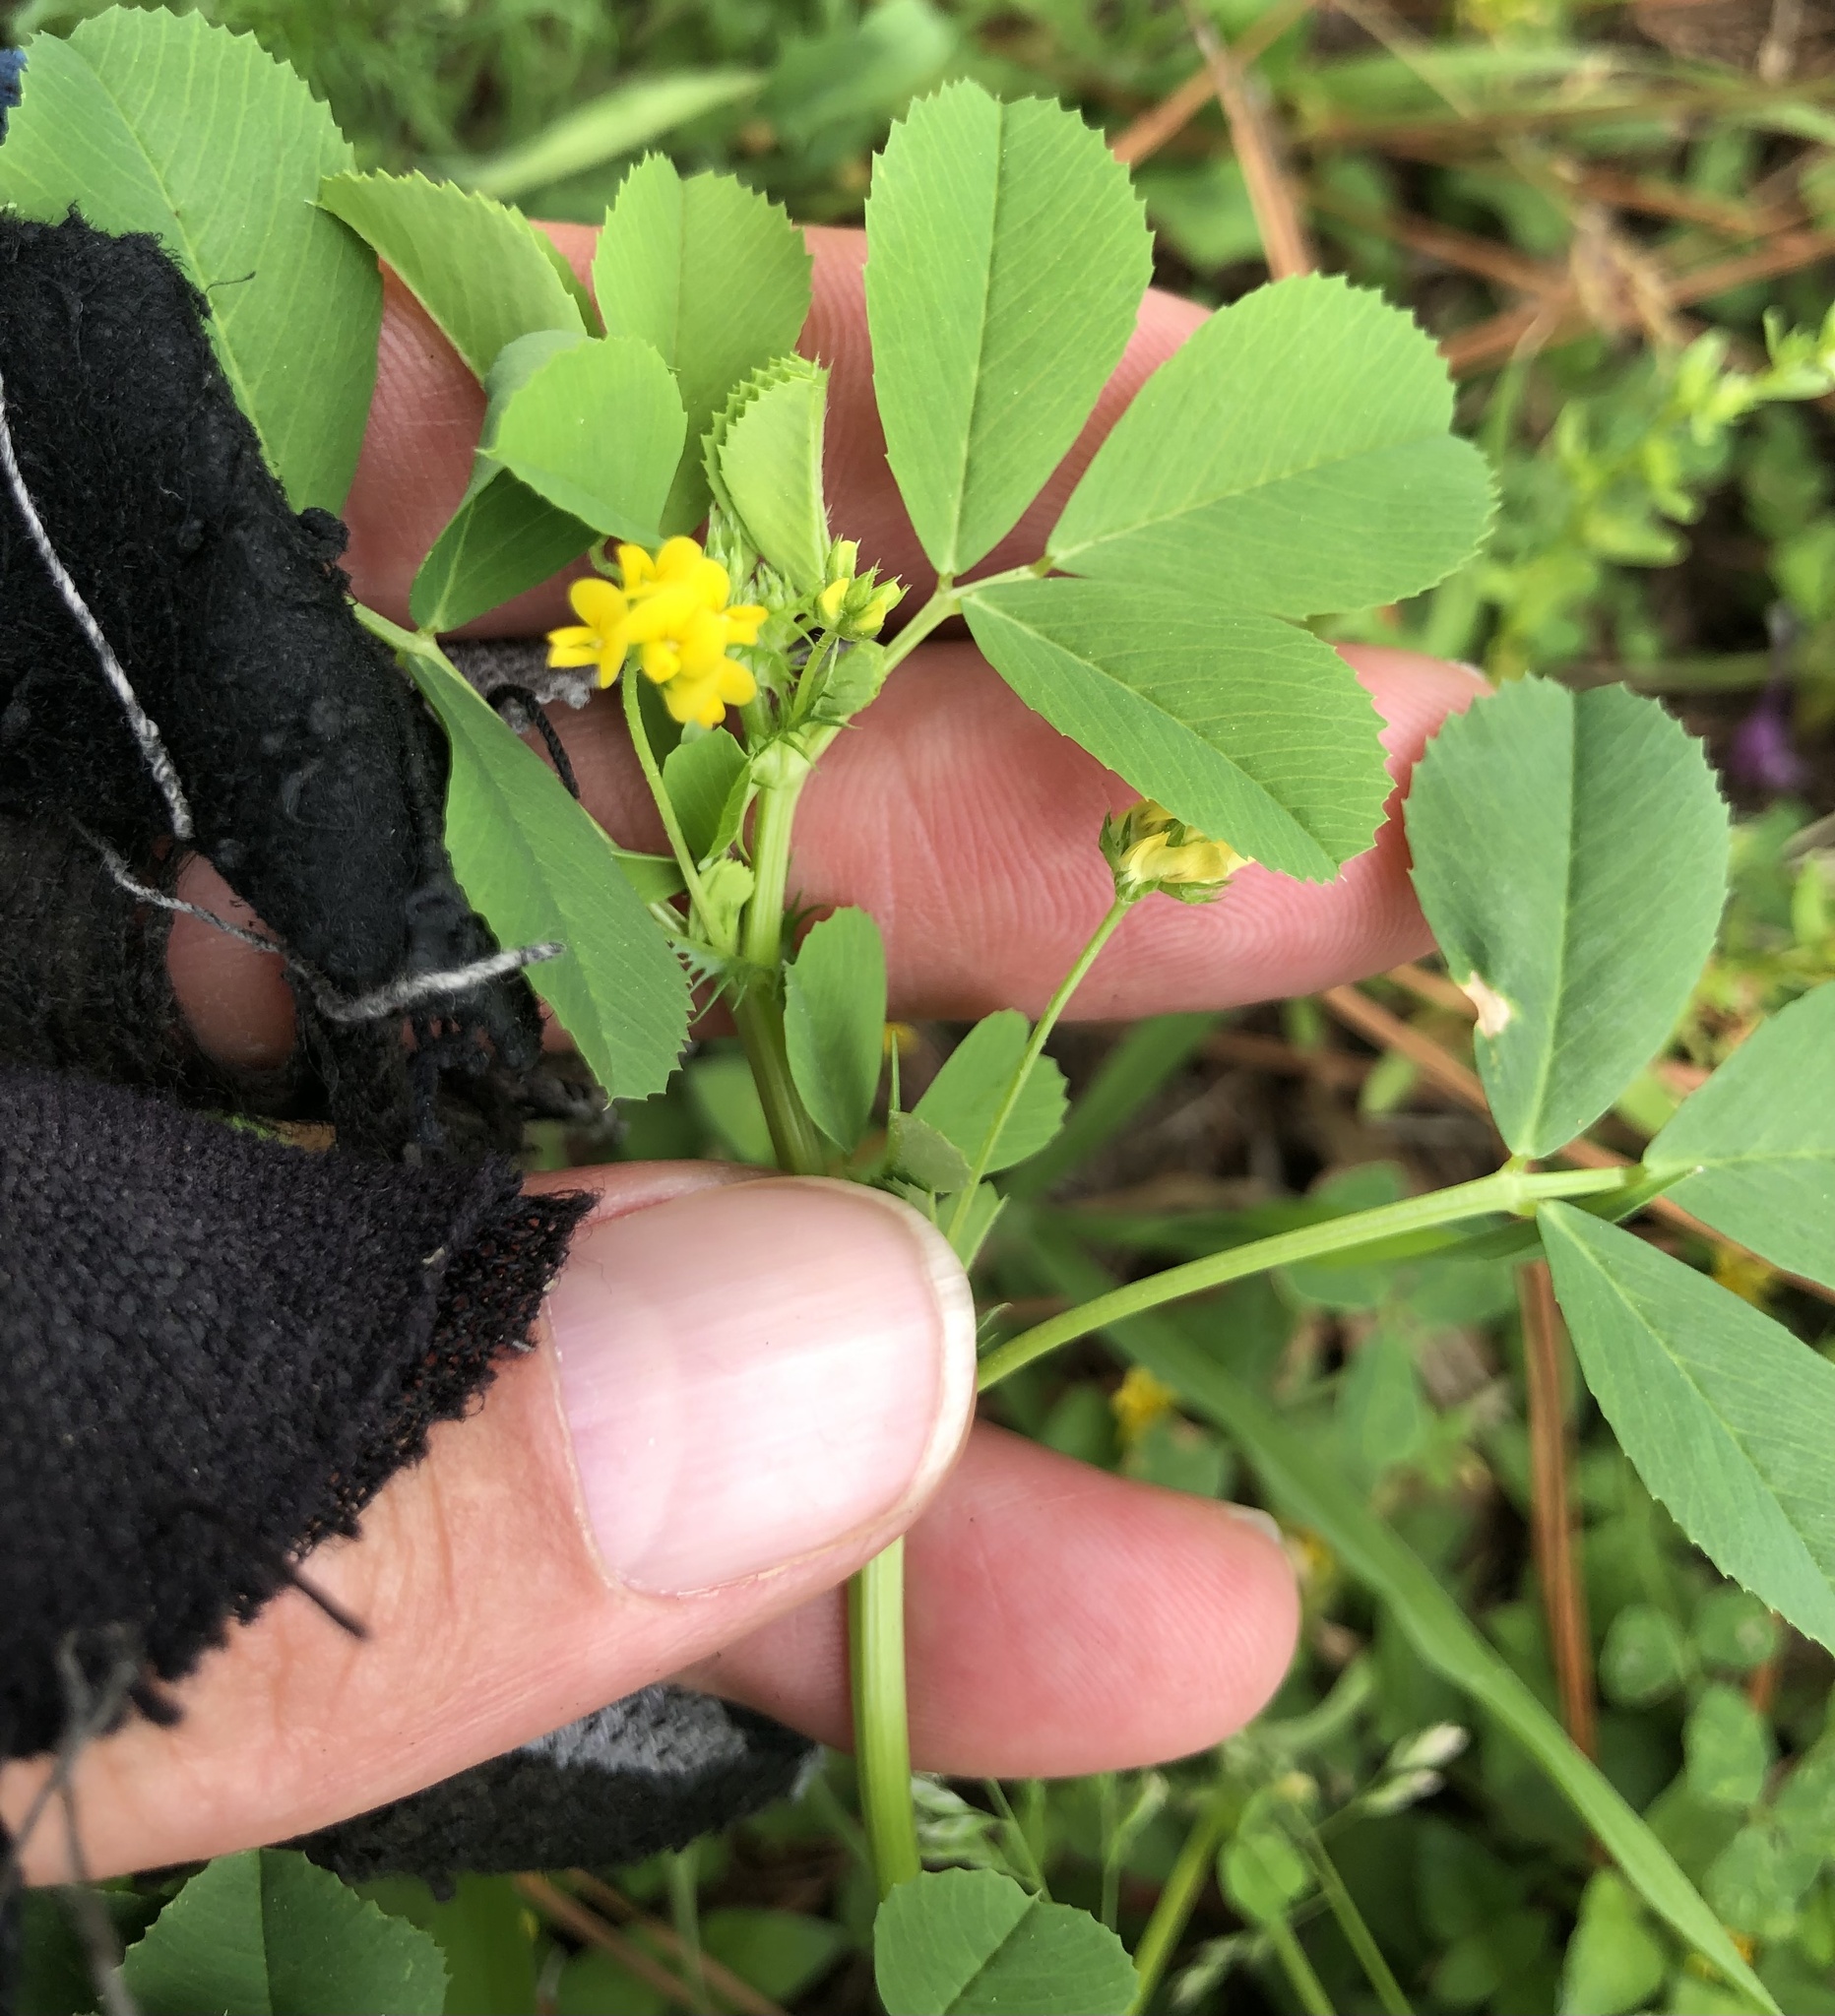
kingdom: Plantae
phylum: Tracheophyta
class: Magnoliopsida
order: Fabales
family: Fabaceae
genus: Medicago
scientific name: Medicago polymorpha
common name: Burclover
